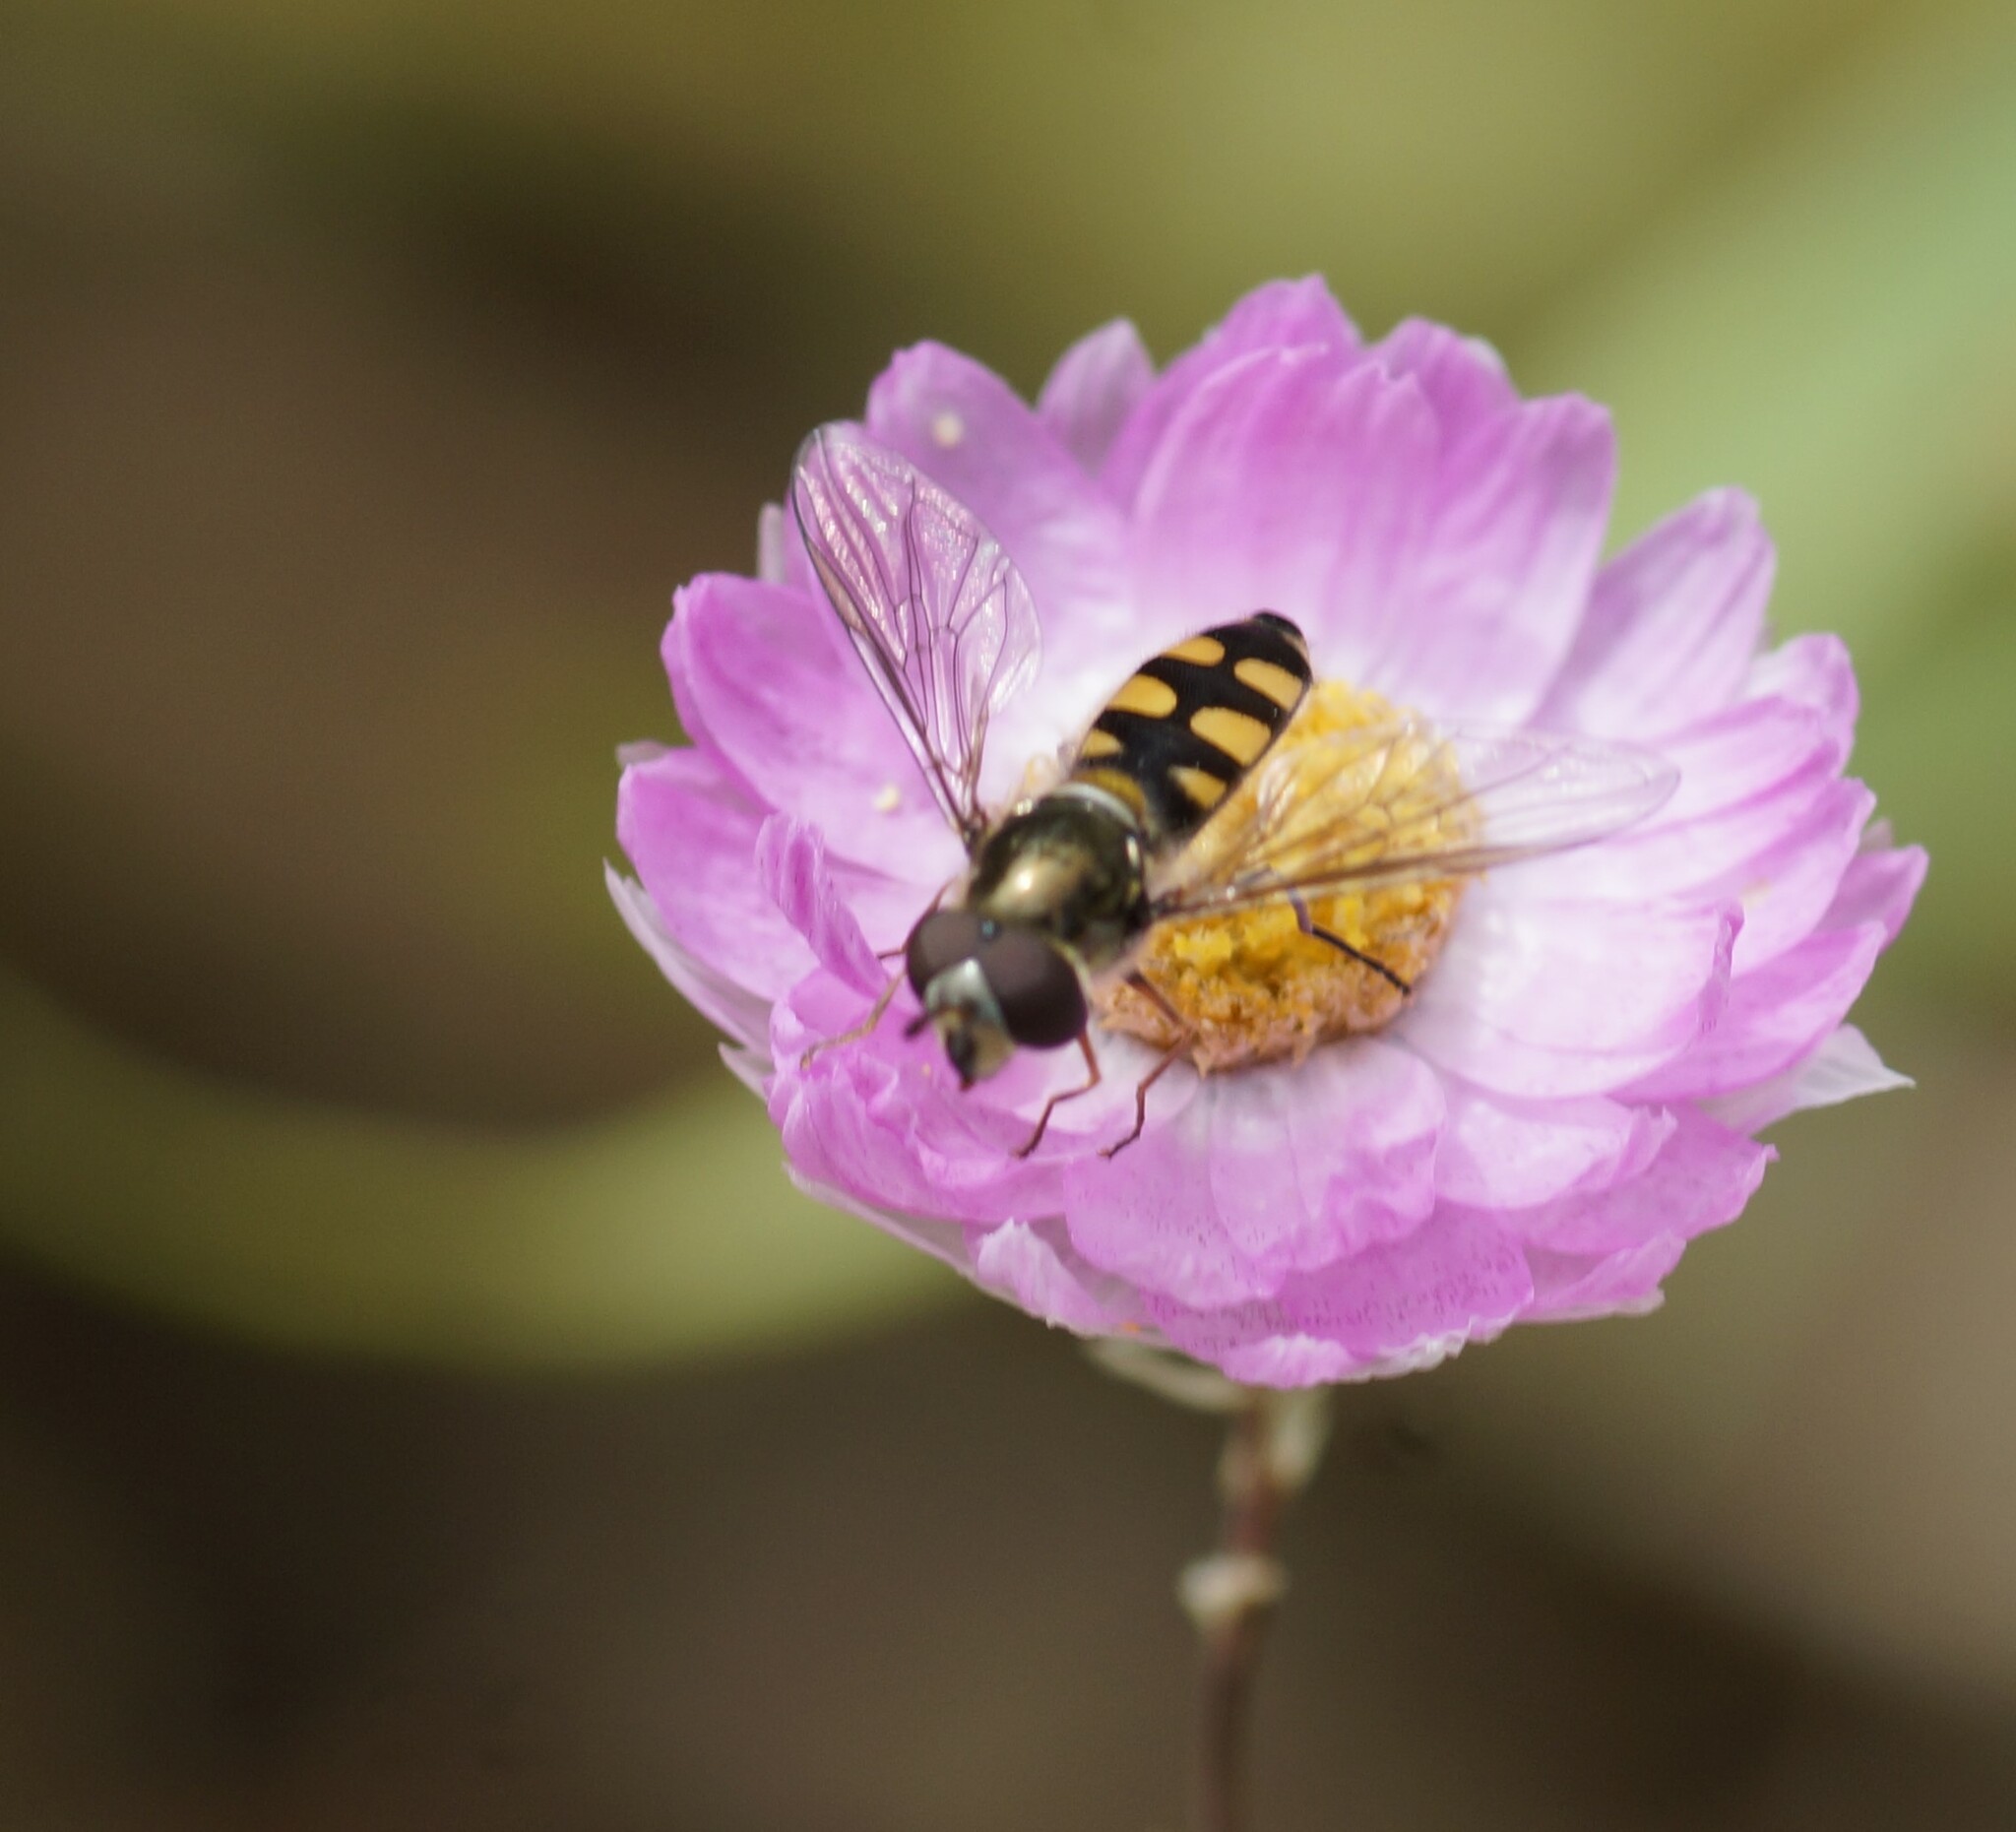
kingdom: Animalia
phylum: Arthropoda
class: Insecta
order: Diptera
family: Syrphidae
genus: Melangyna
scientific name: Melangyna viridiceps
